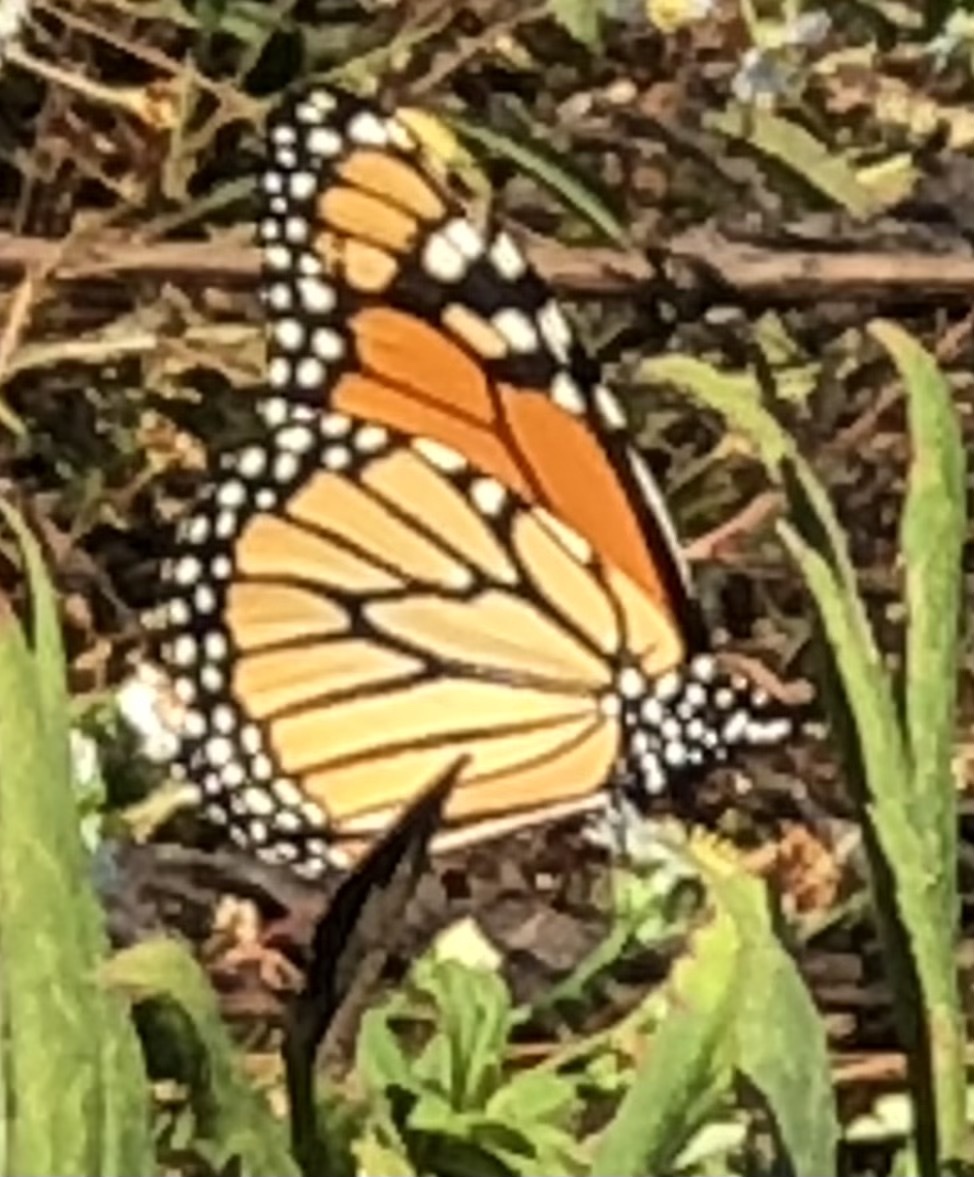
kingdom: Animalia
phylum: Arthropoda
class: Insecta
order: Lepidoptera
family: Nymphalidae
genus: Danaus
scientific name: Danaus plexippus
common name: Monarch
